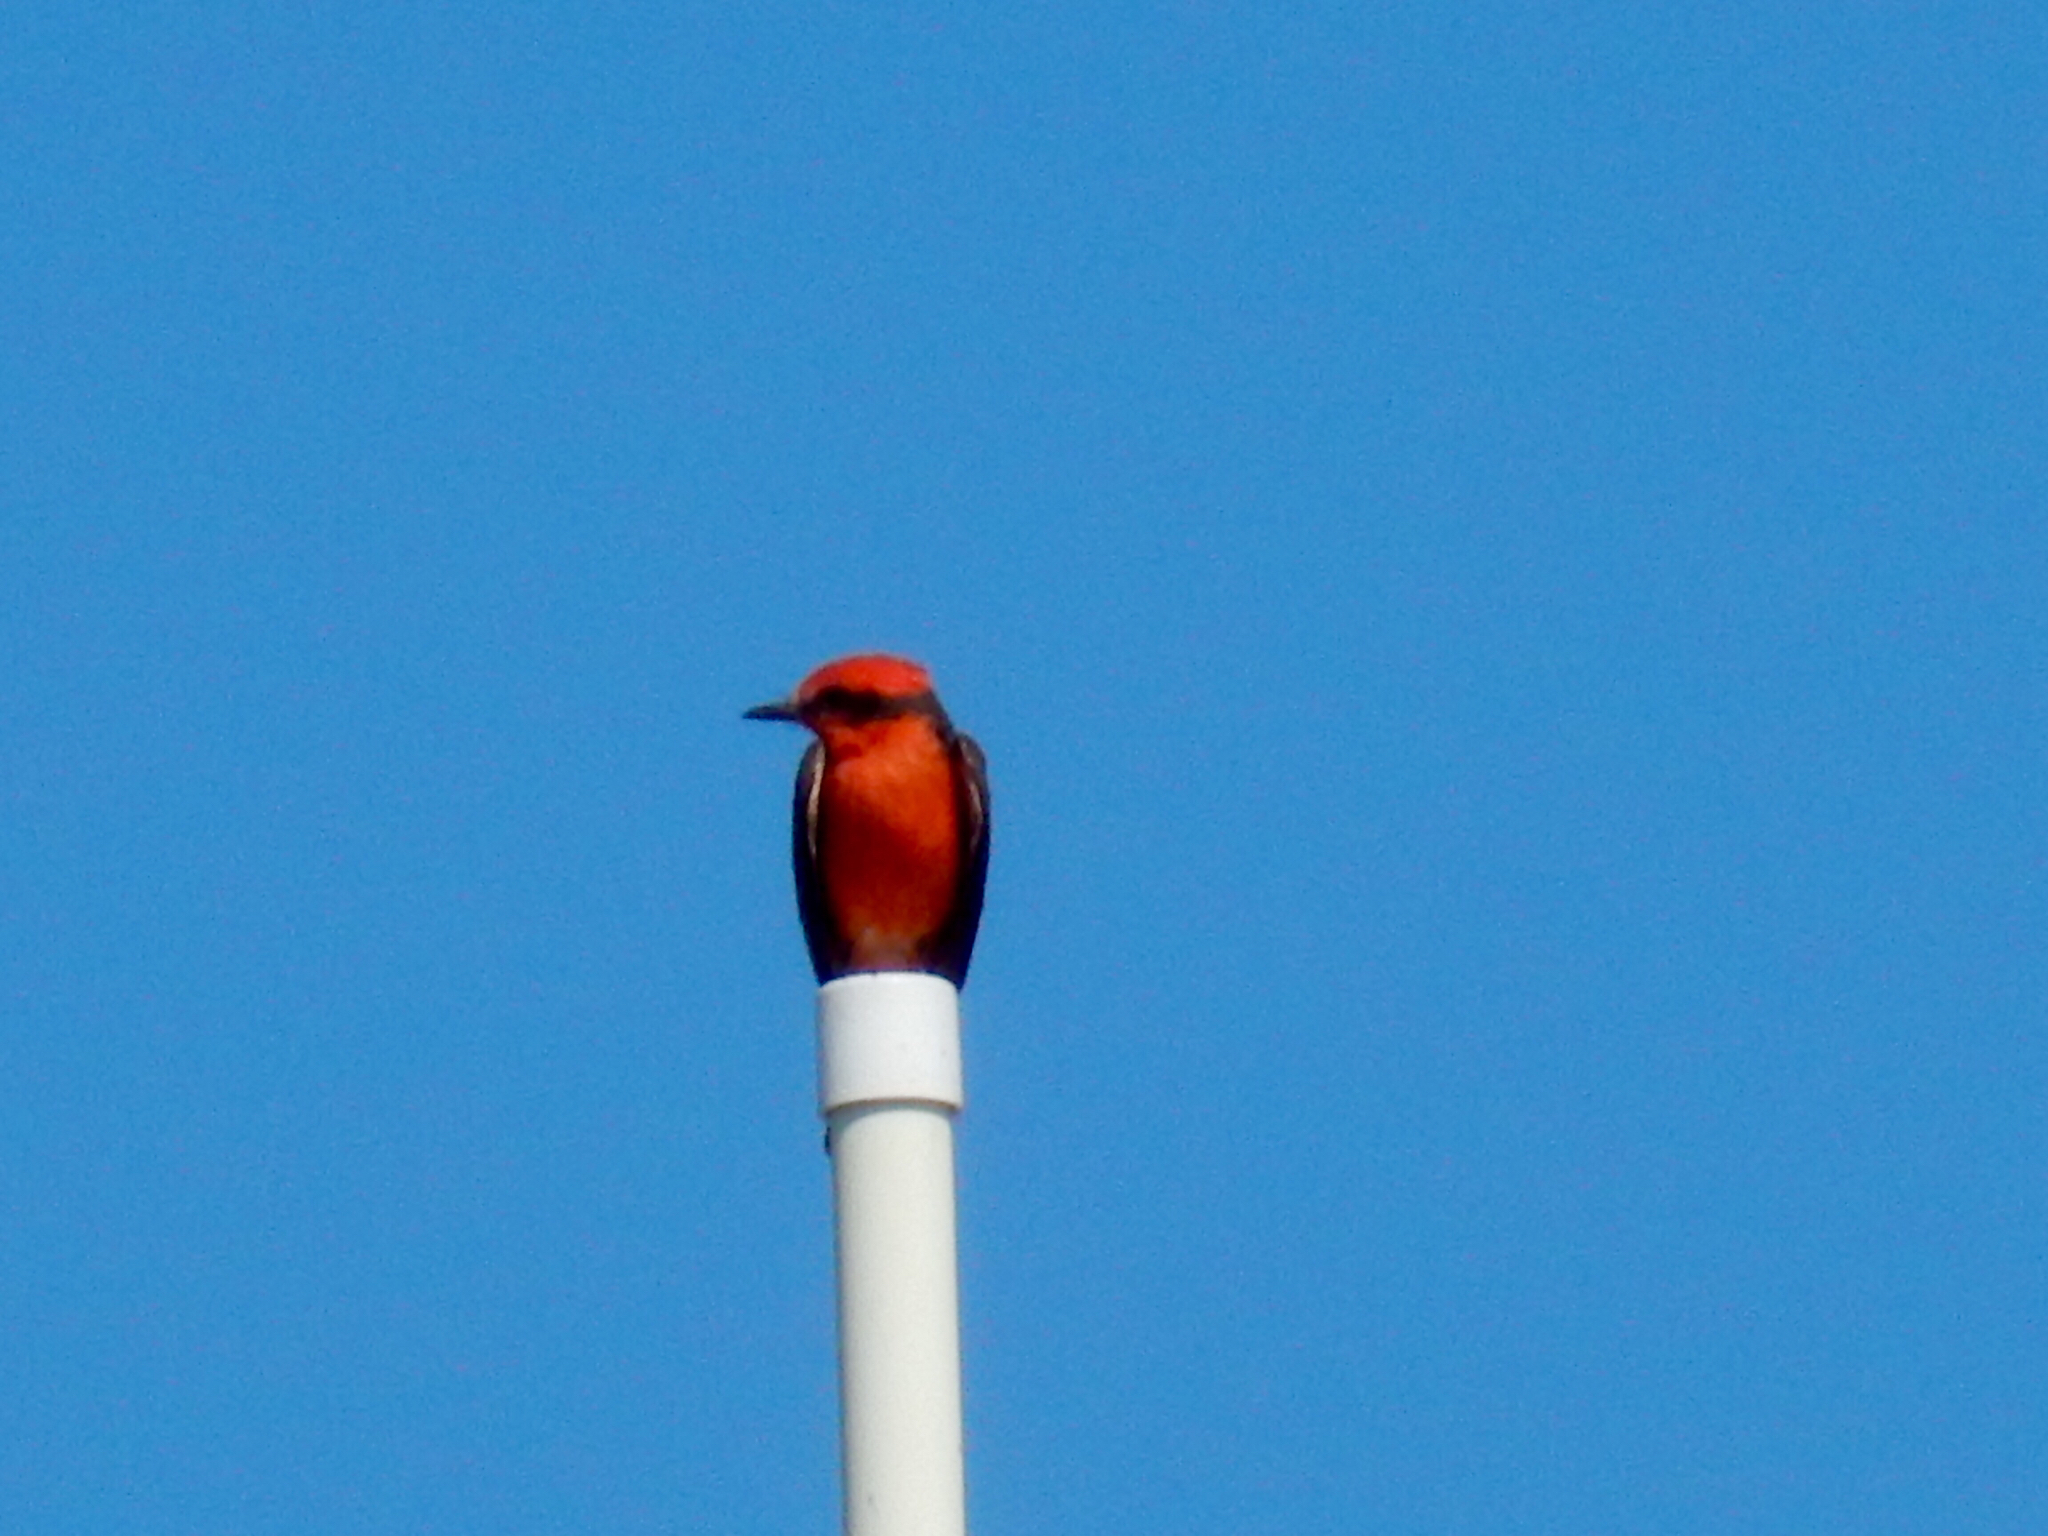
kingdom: Animalia
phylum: Chordata
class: Aves
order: Passeriformes
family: Tyrannidae
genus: Pyrocephalus
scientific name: Pyrocephalus rubinus
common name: Vermilion flycatcher
